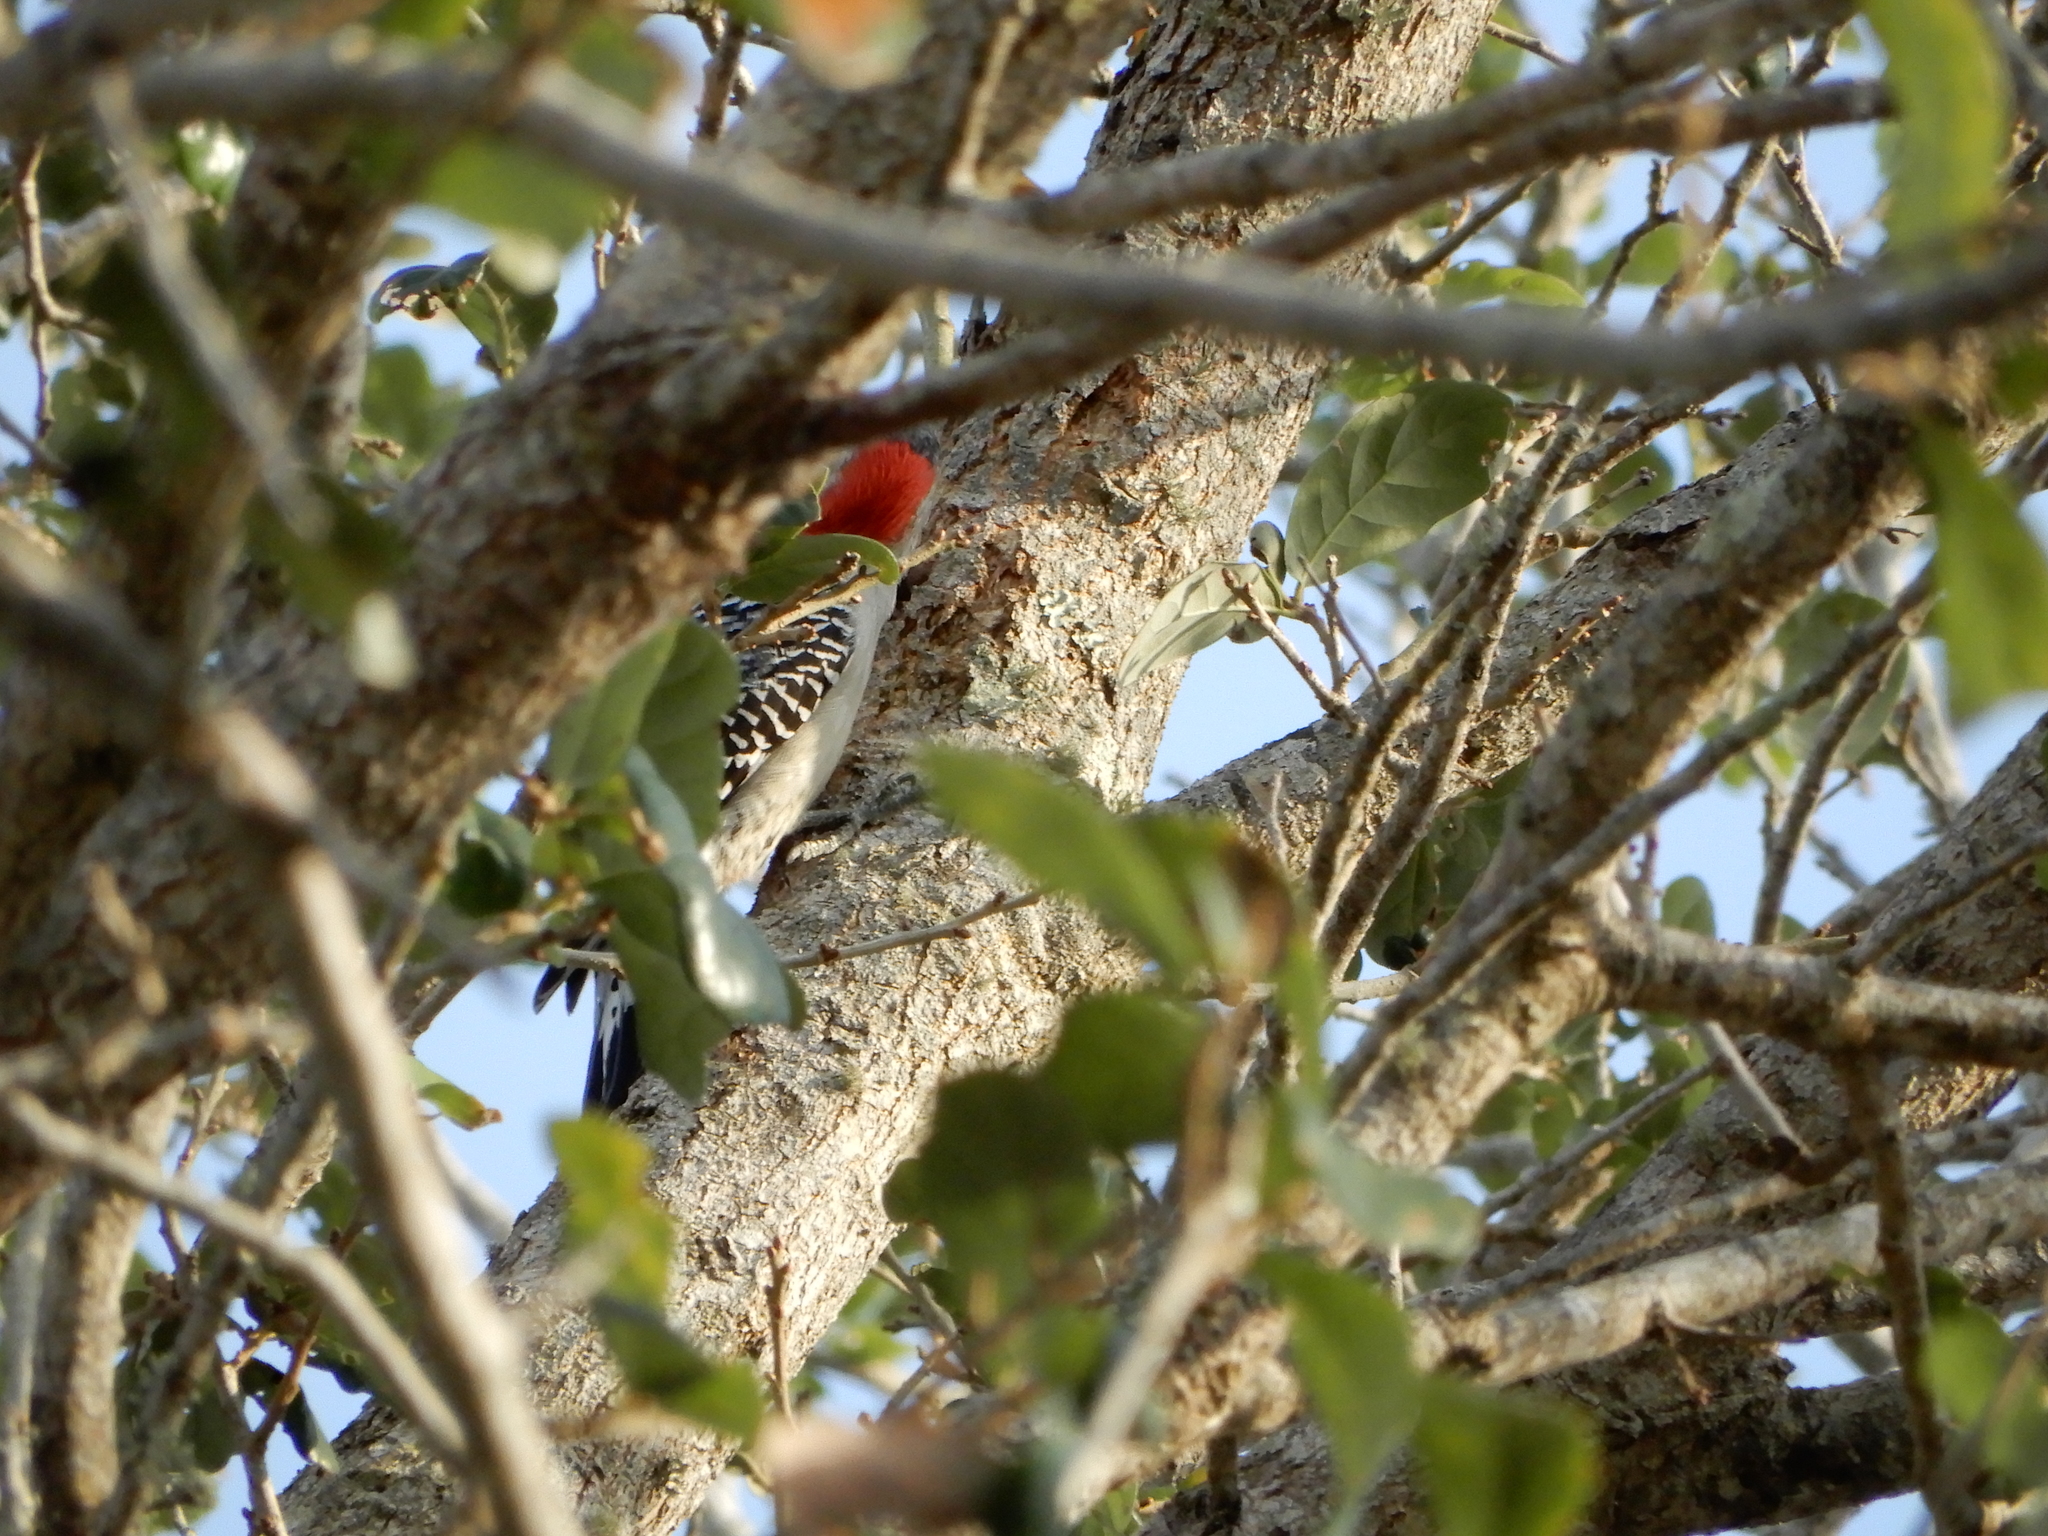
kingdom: Animalia
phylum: Chordata
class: Aves
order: Piciformes
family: Picidae
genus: Melanerpes
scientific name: Melanerpes carolinus
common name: Red-bellied woodpecker
